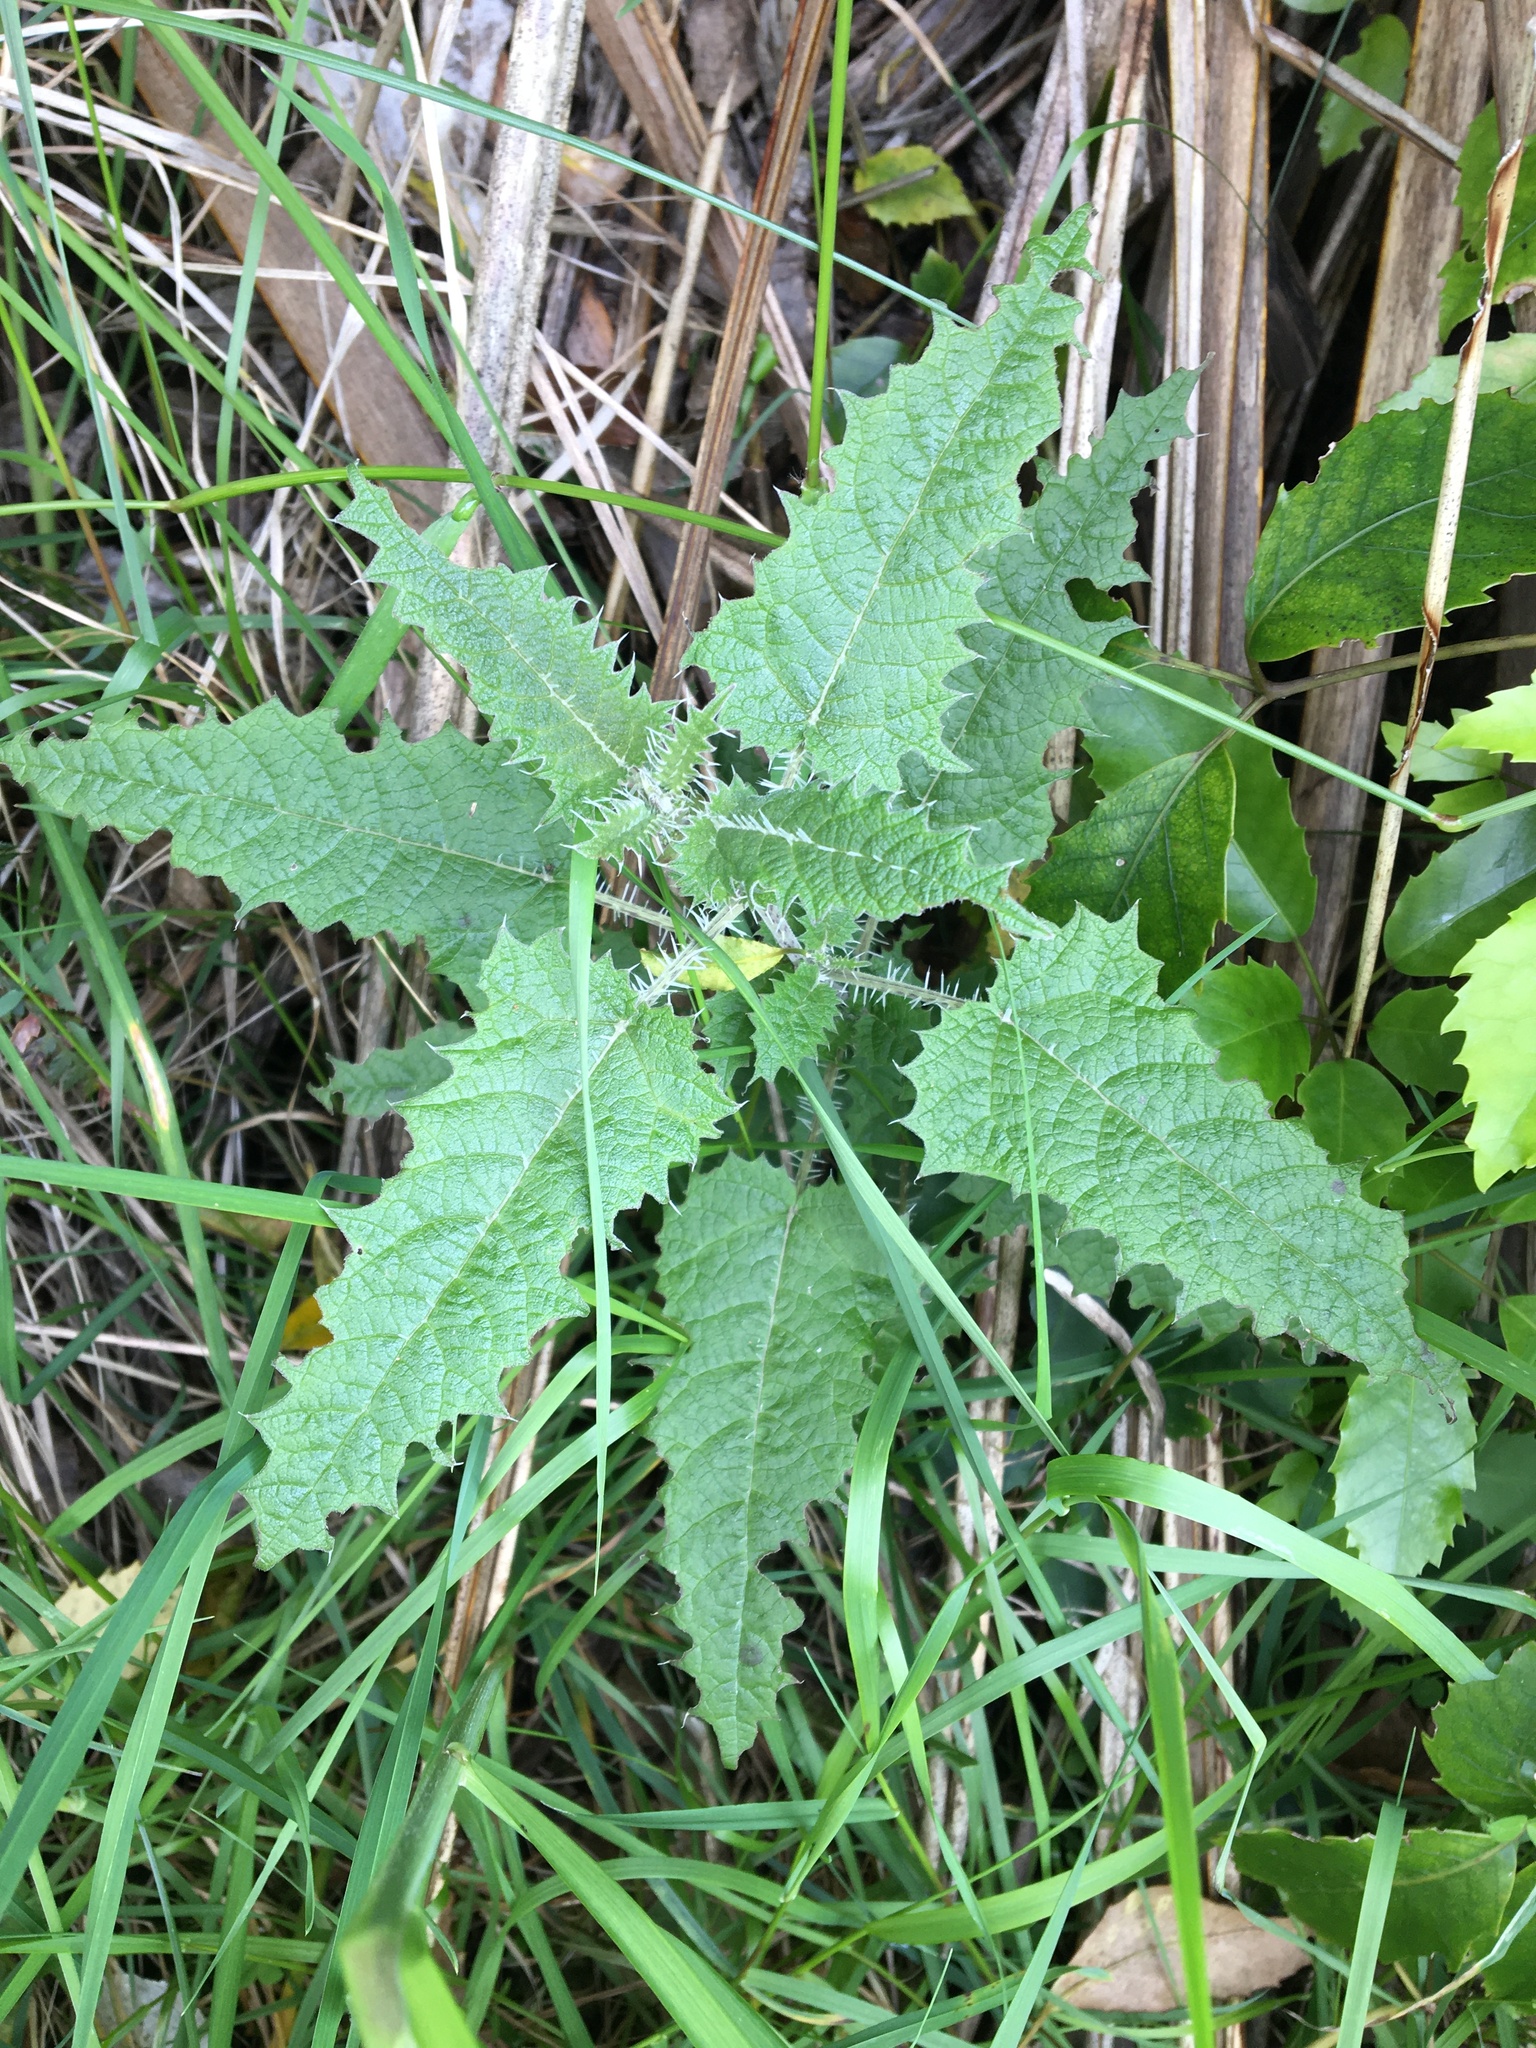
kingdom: Plantae
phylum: Tracheophyta
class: Magnoliopsida
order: Rosales
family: Urticaceae
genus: Urtica
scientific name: Urtica ferox
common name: Tree nettle
